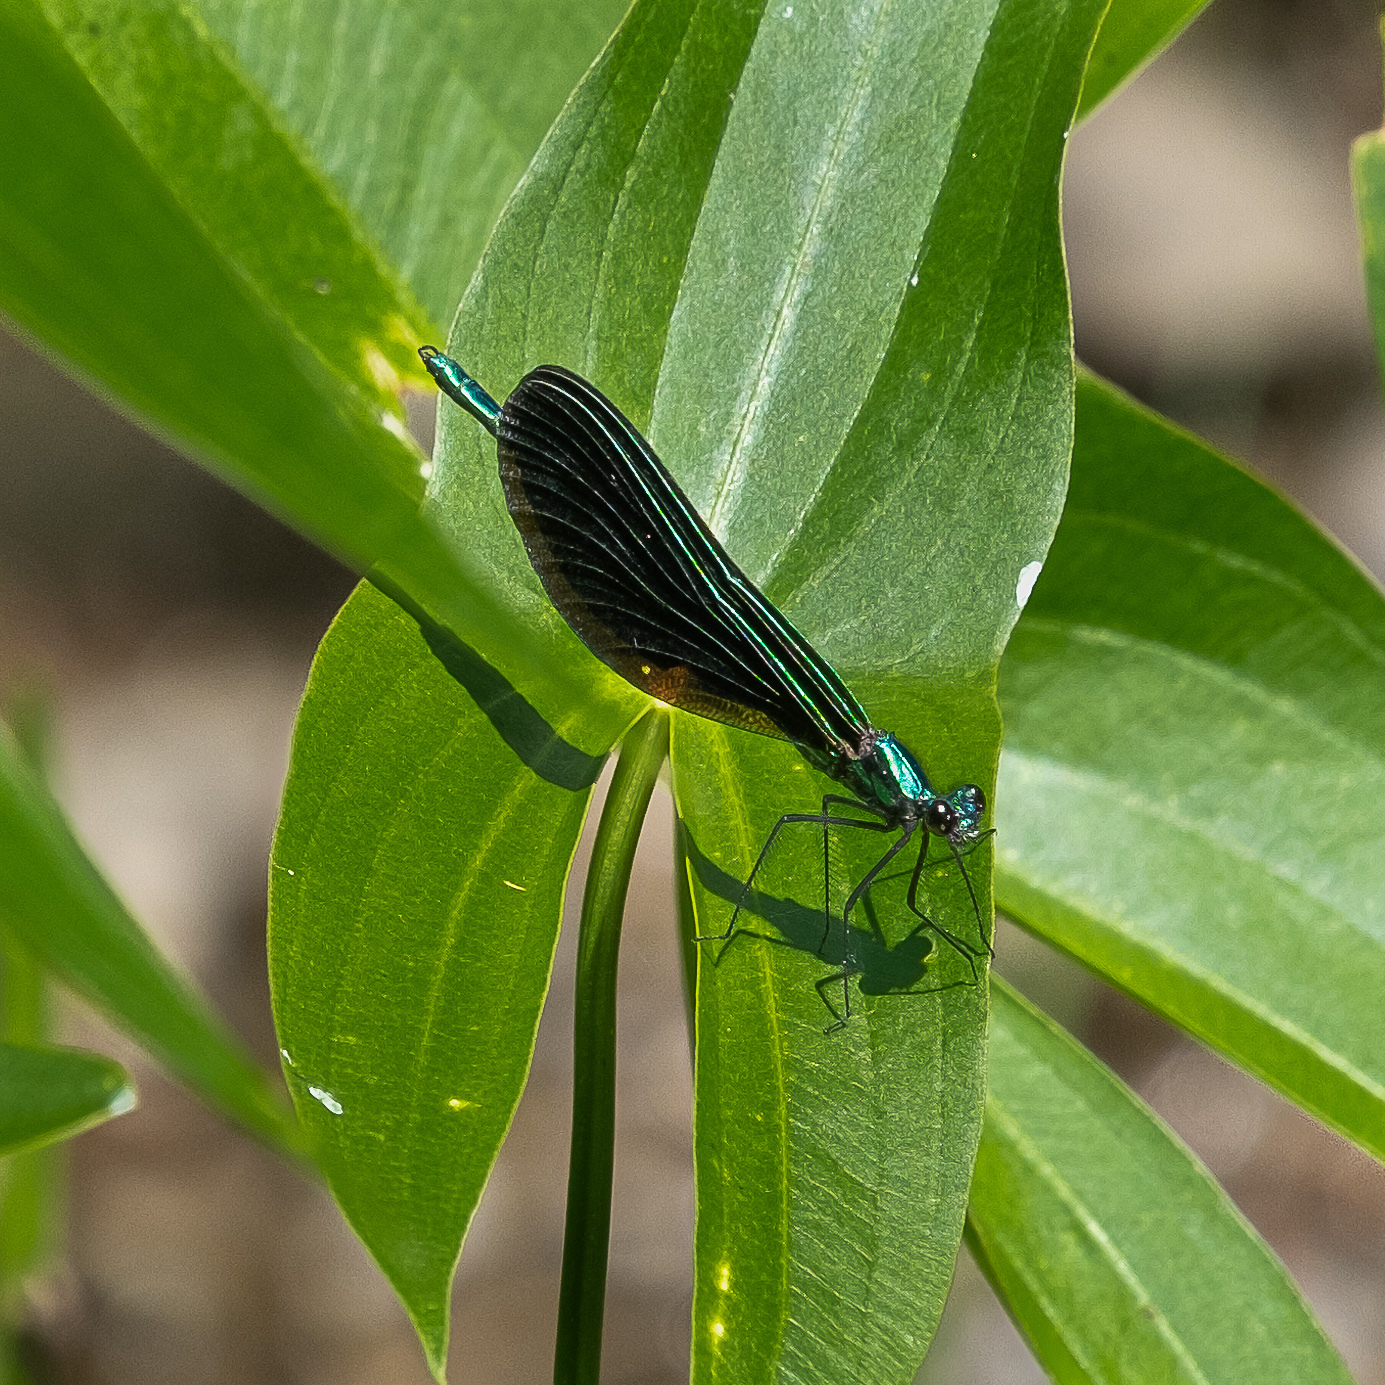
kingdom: Animalia
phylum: Arthropoda
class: Insecta
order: Odonata
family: Calopterygidae
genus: Calopteryx
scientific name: Calopteryx maculata
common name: Ebony jewelwing
